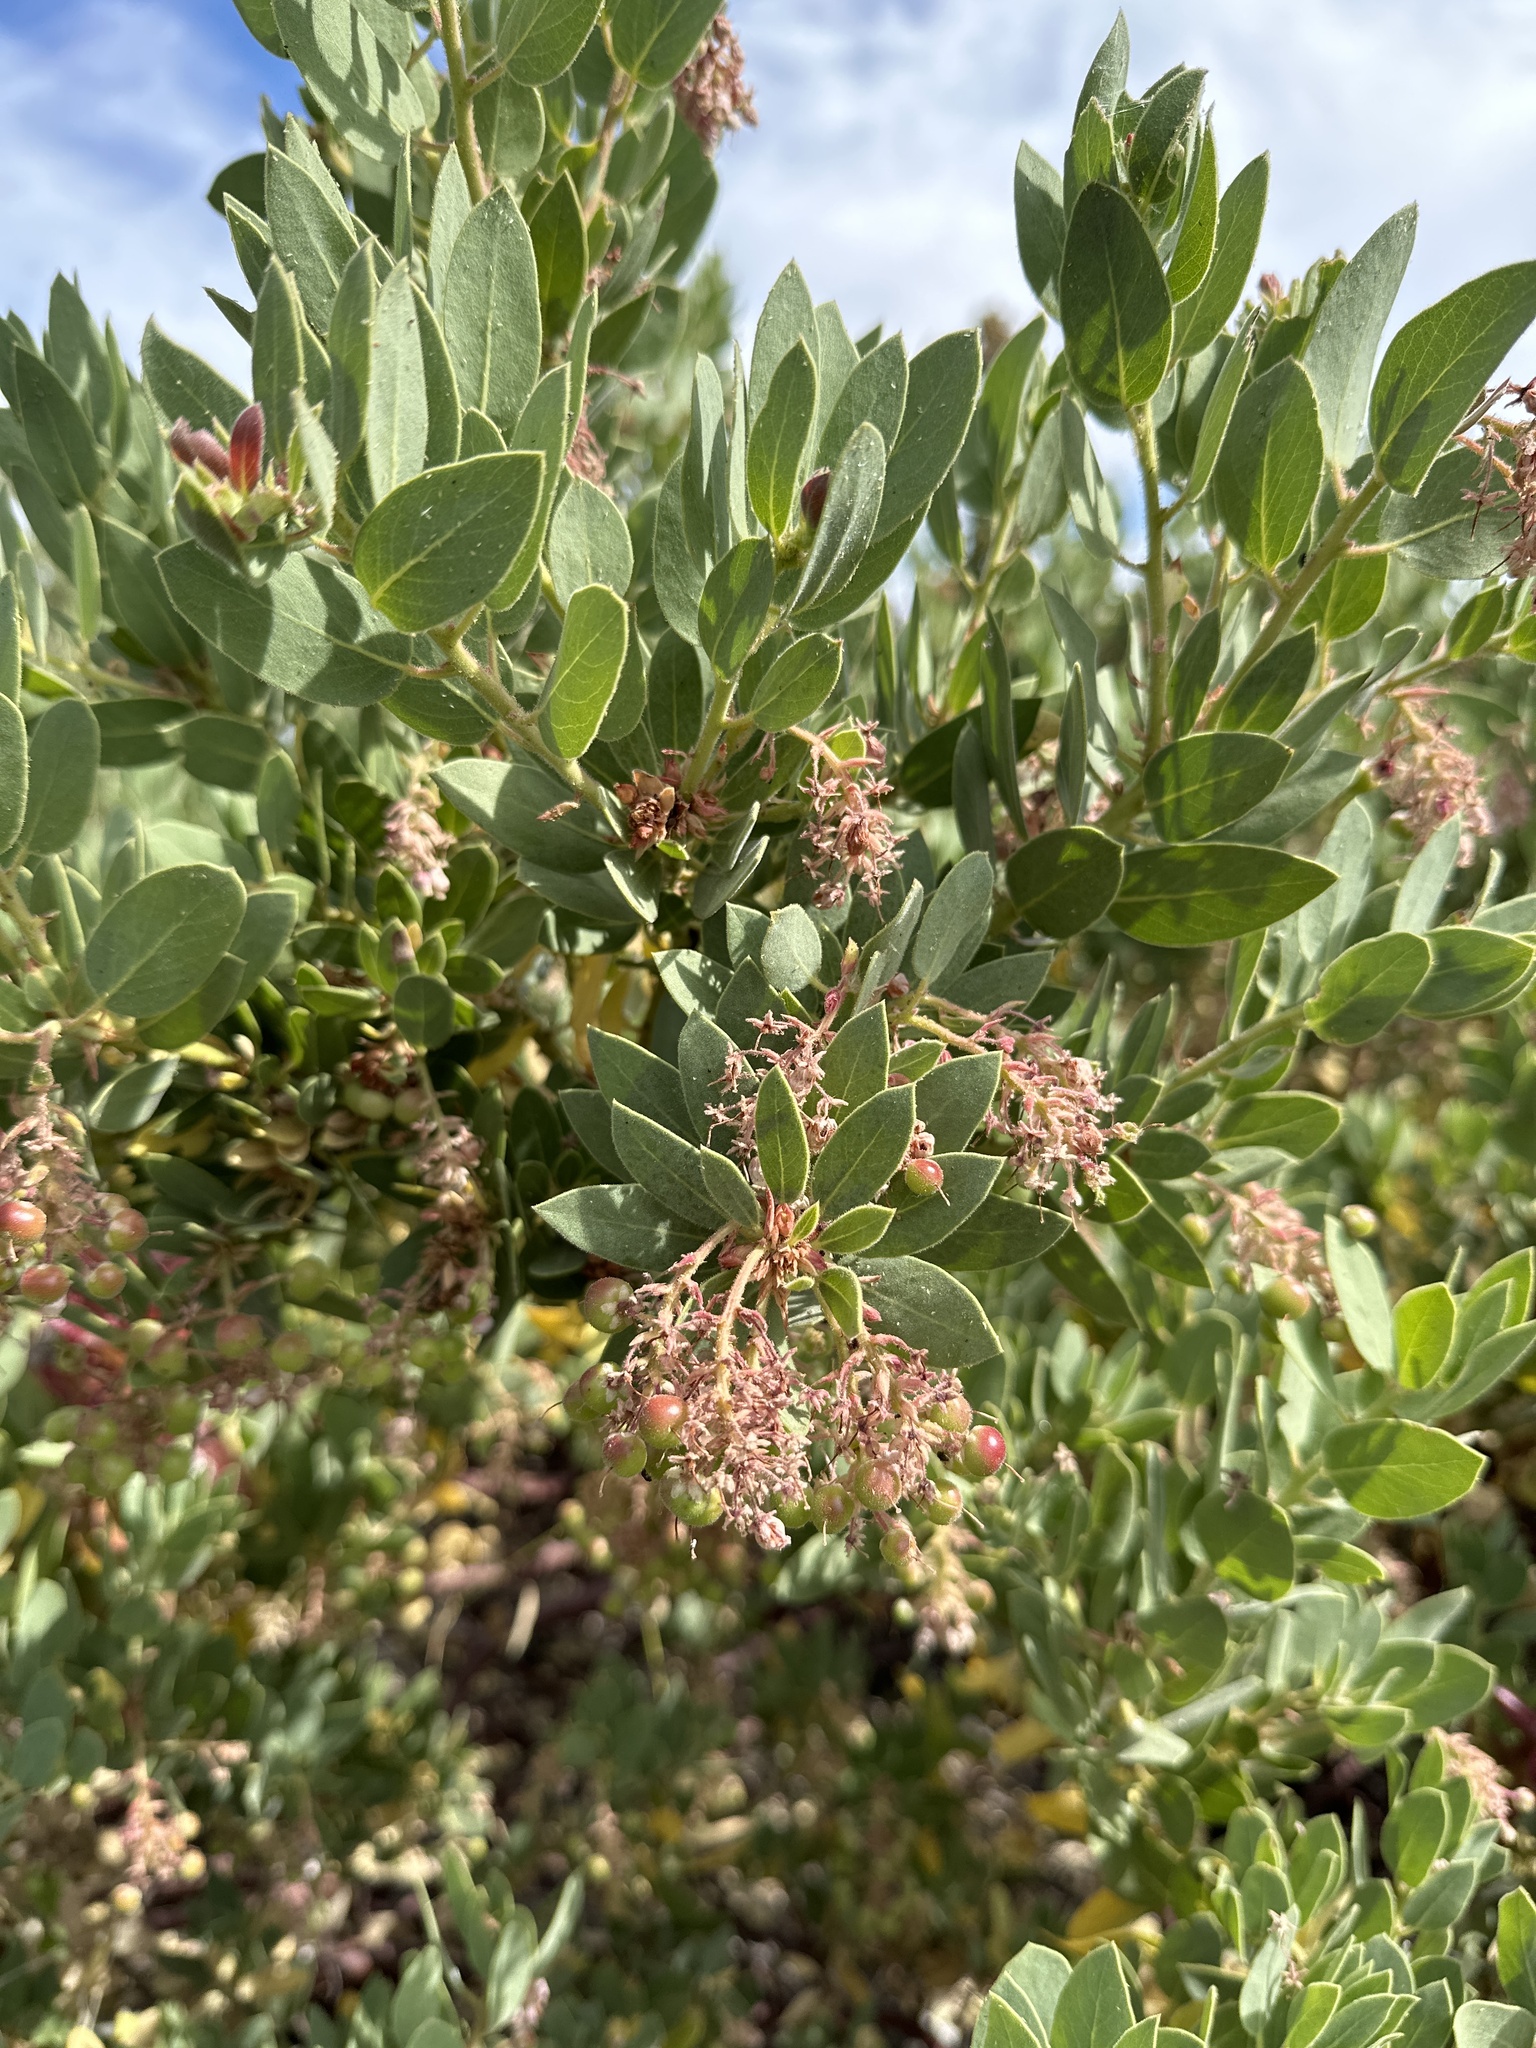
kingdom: Plantae
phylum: Tracheophyta
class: Magnoliopsida
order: Ericales
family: Ericaceae
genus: Arctostaphylos
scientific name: Arctostaphylos pringlei
